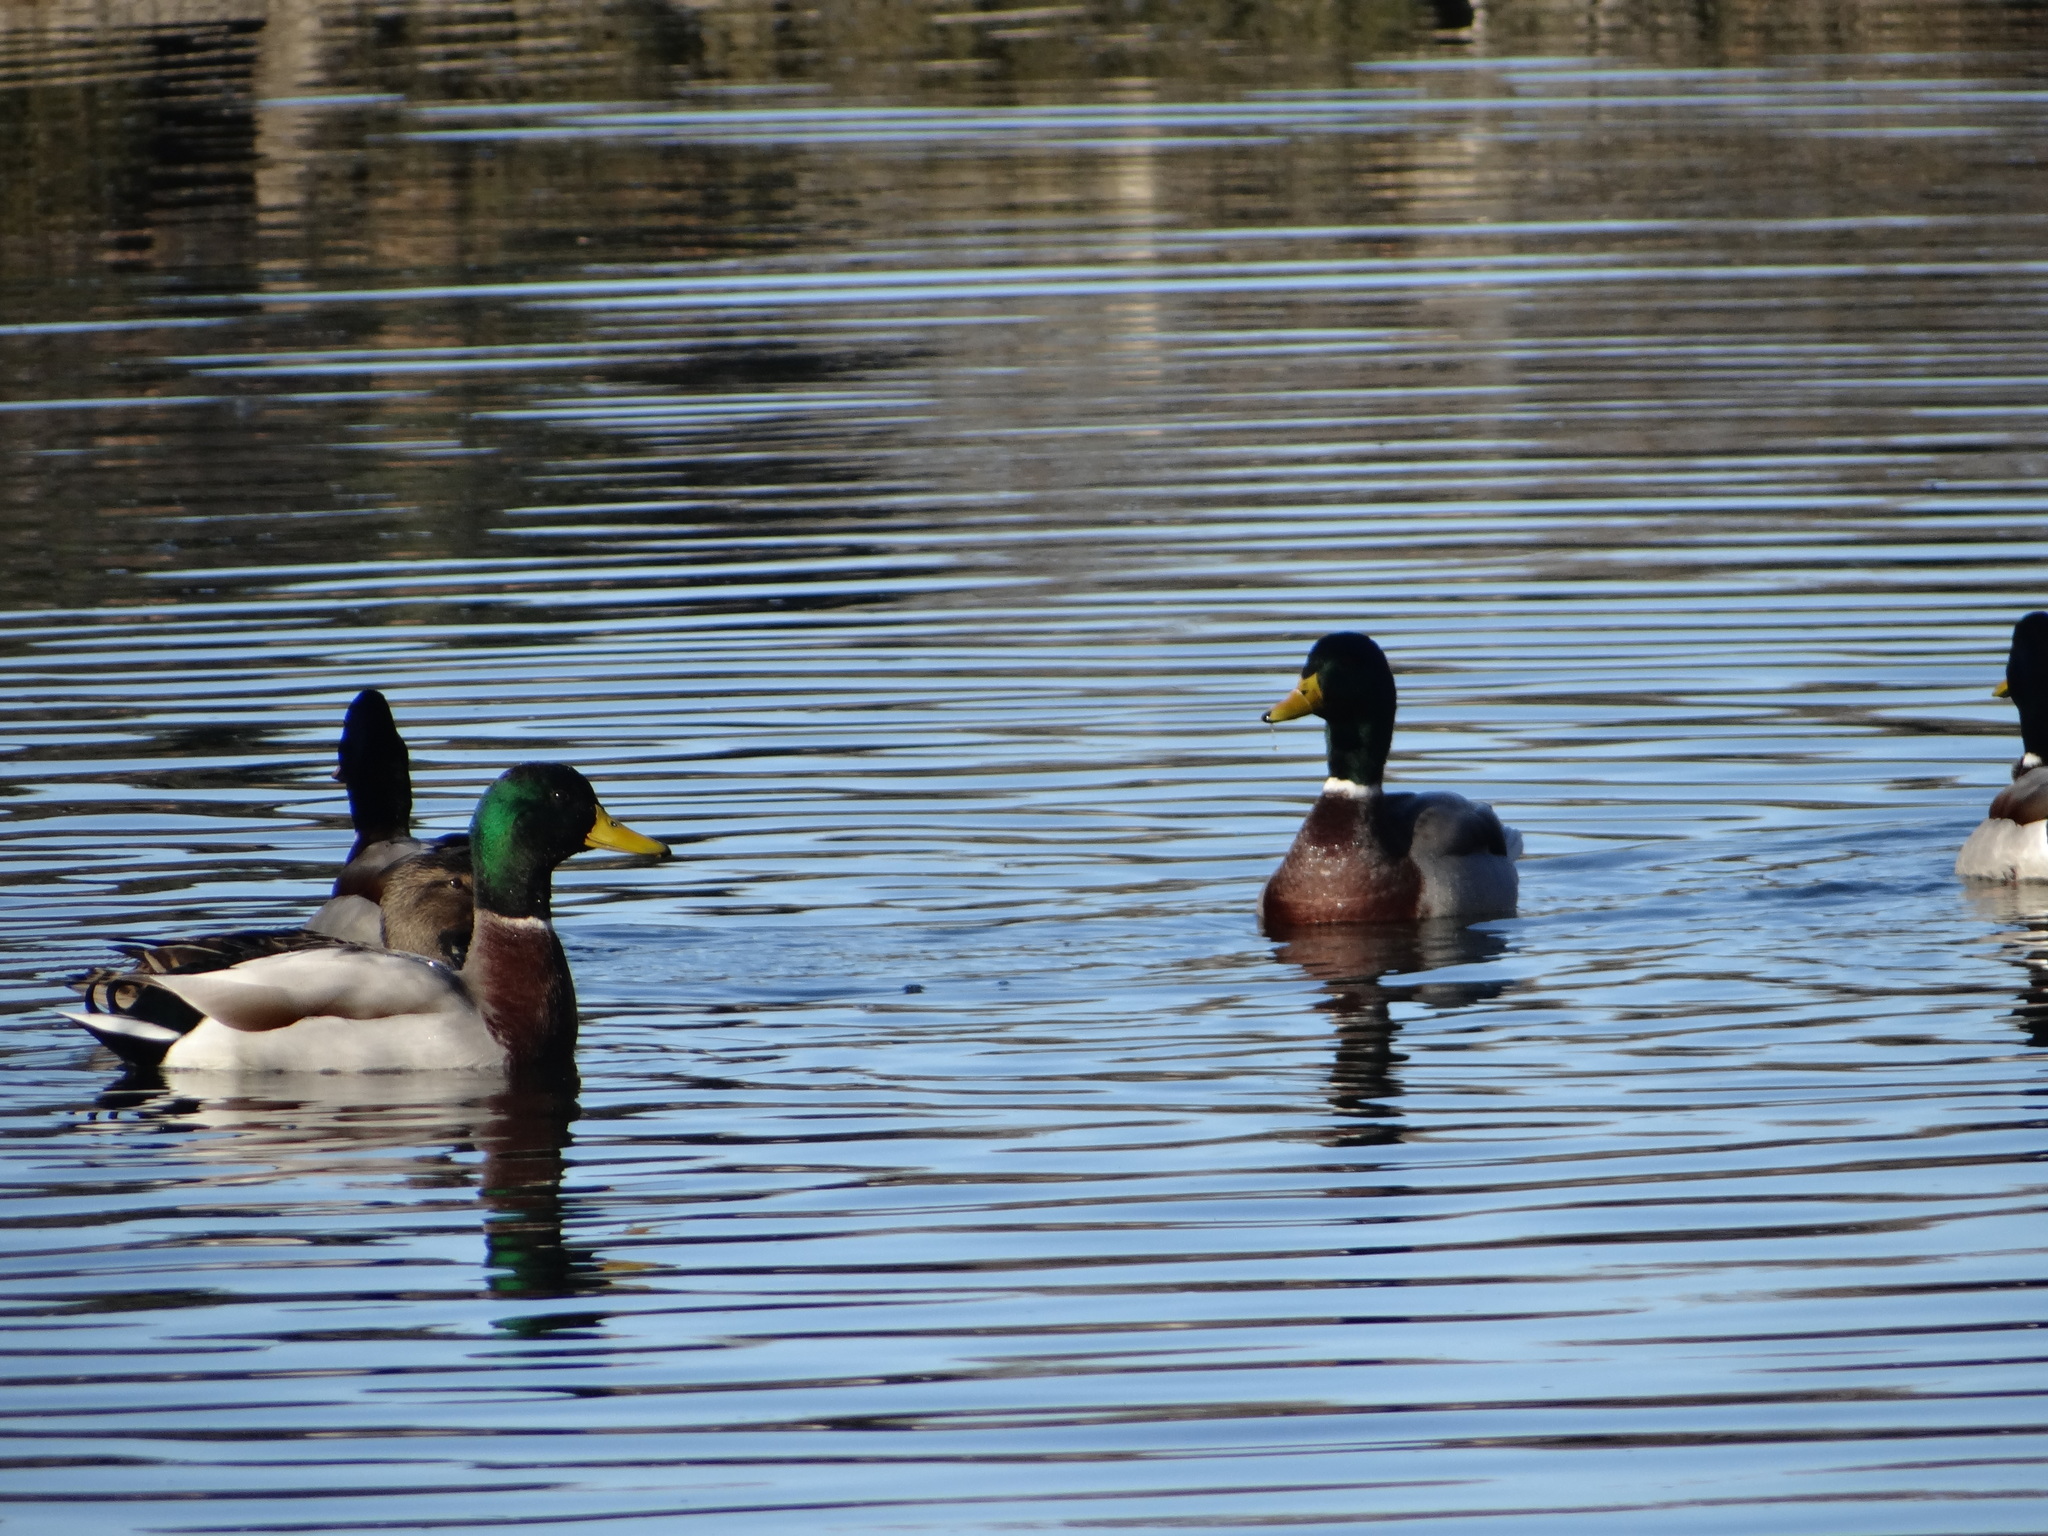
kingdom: Animalia
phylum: Chordata
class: Aves
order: Anseriformes
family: Anatidae
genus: Anas
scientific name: Anas platyrhynchos
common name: Mallard
